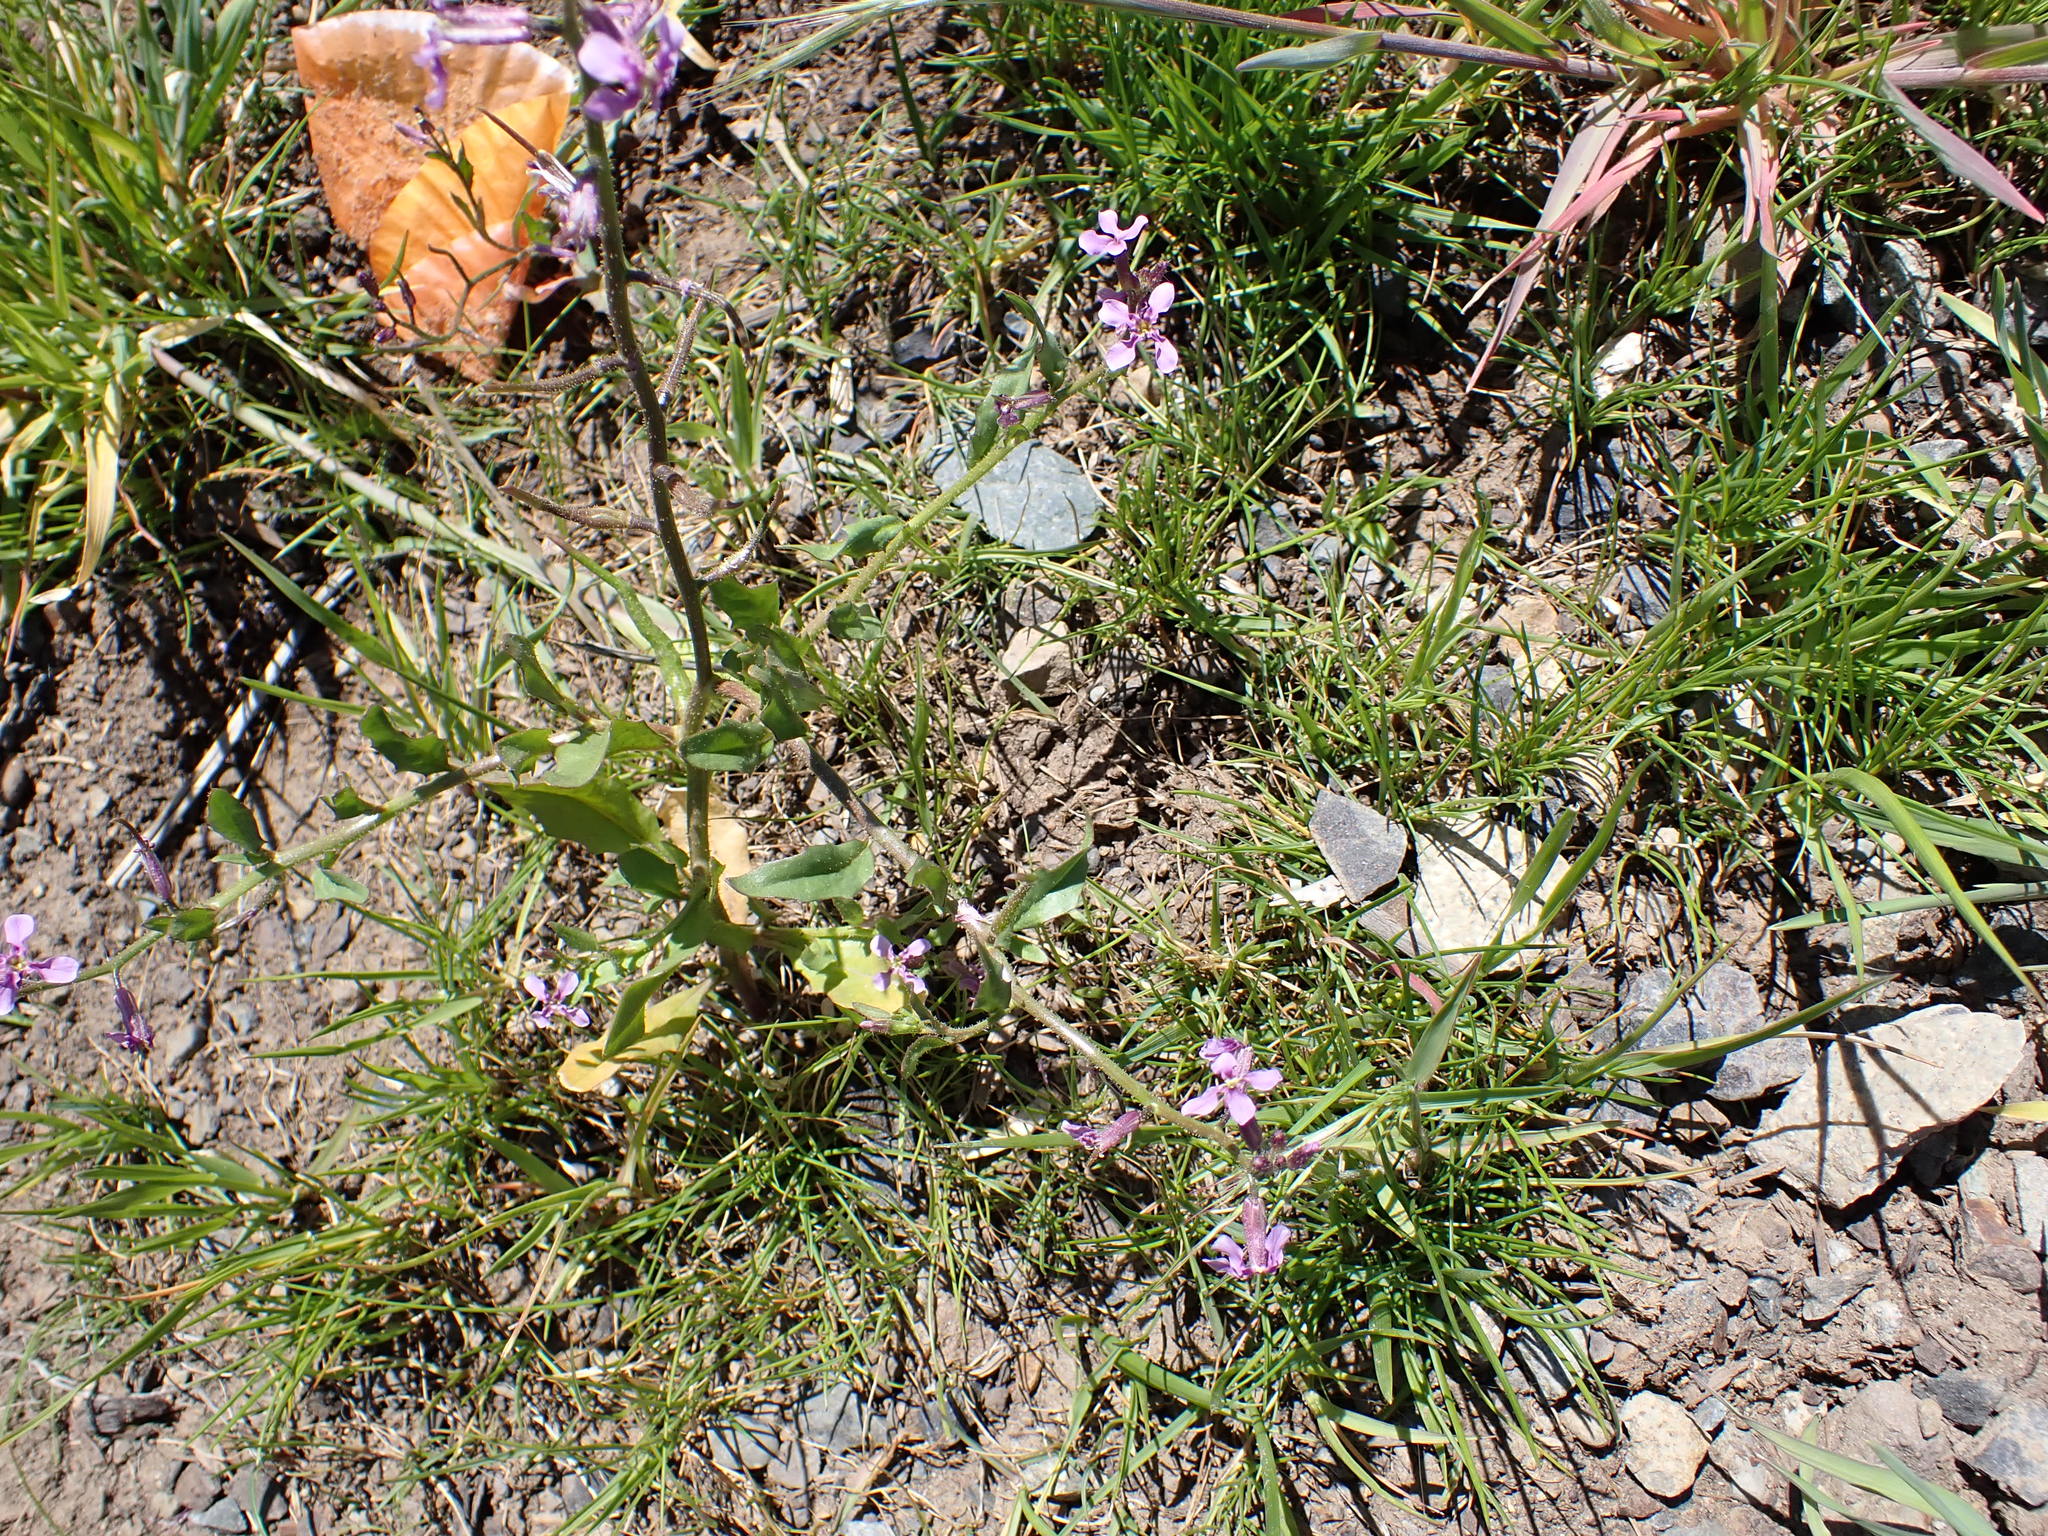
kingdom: Plantae
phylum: Tracheophyta
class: Magnoliopsida
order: Brassicales
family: Brassicaceae
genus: Chorispora
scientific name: Chorispora tenella
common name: Crossflower
